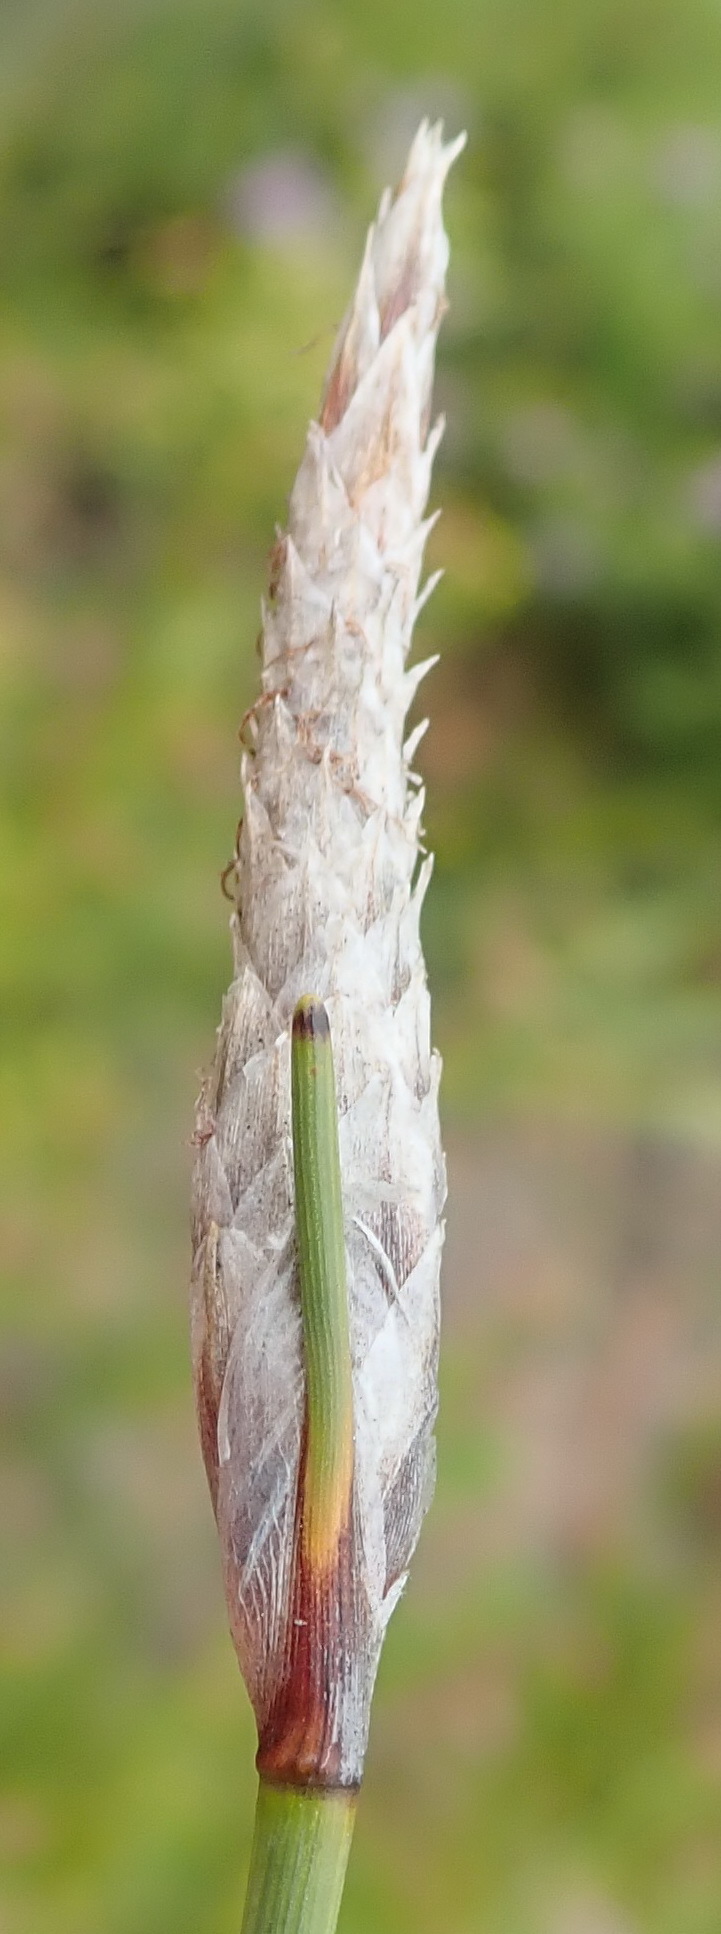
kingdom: Plantae
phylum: Tracheophyta
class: Liliopsida
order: Poales
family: Cyperaceae
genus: Ficinia
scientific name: Ficinia deusta
